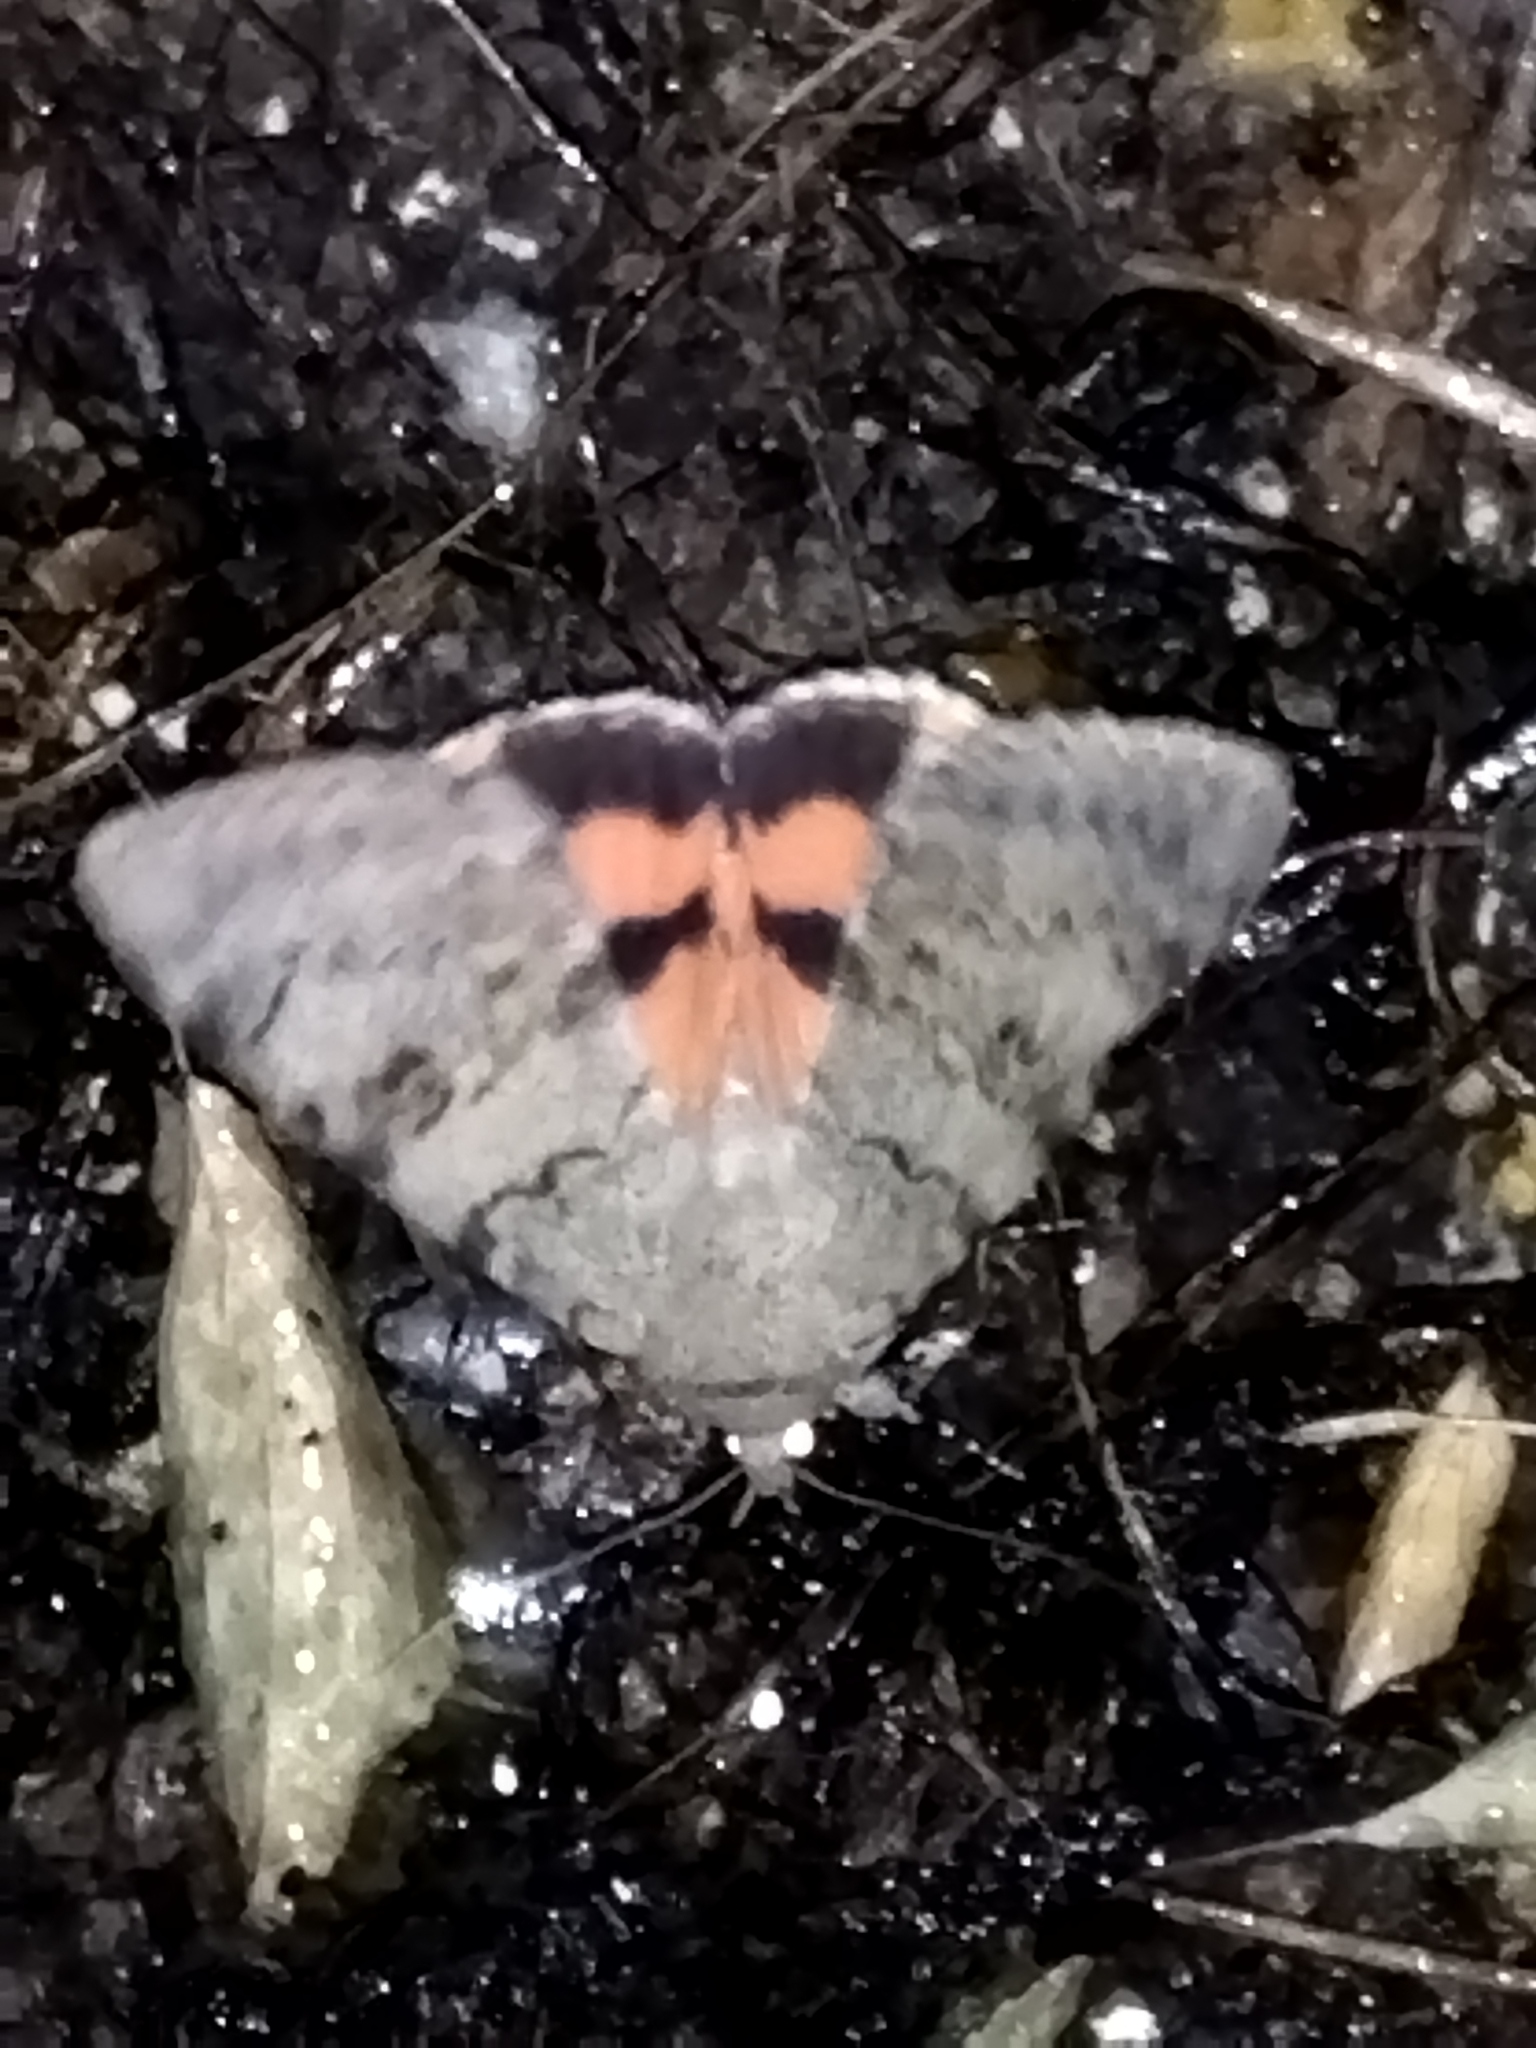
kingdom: Animalia
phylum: Arthropoda
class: Insecta
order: Lepidoptera
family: Erebidae
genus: Catocala
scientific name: Catocala puerpera
